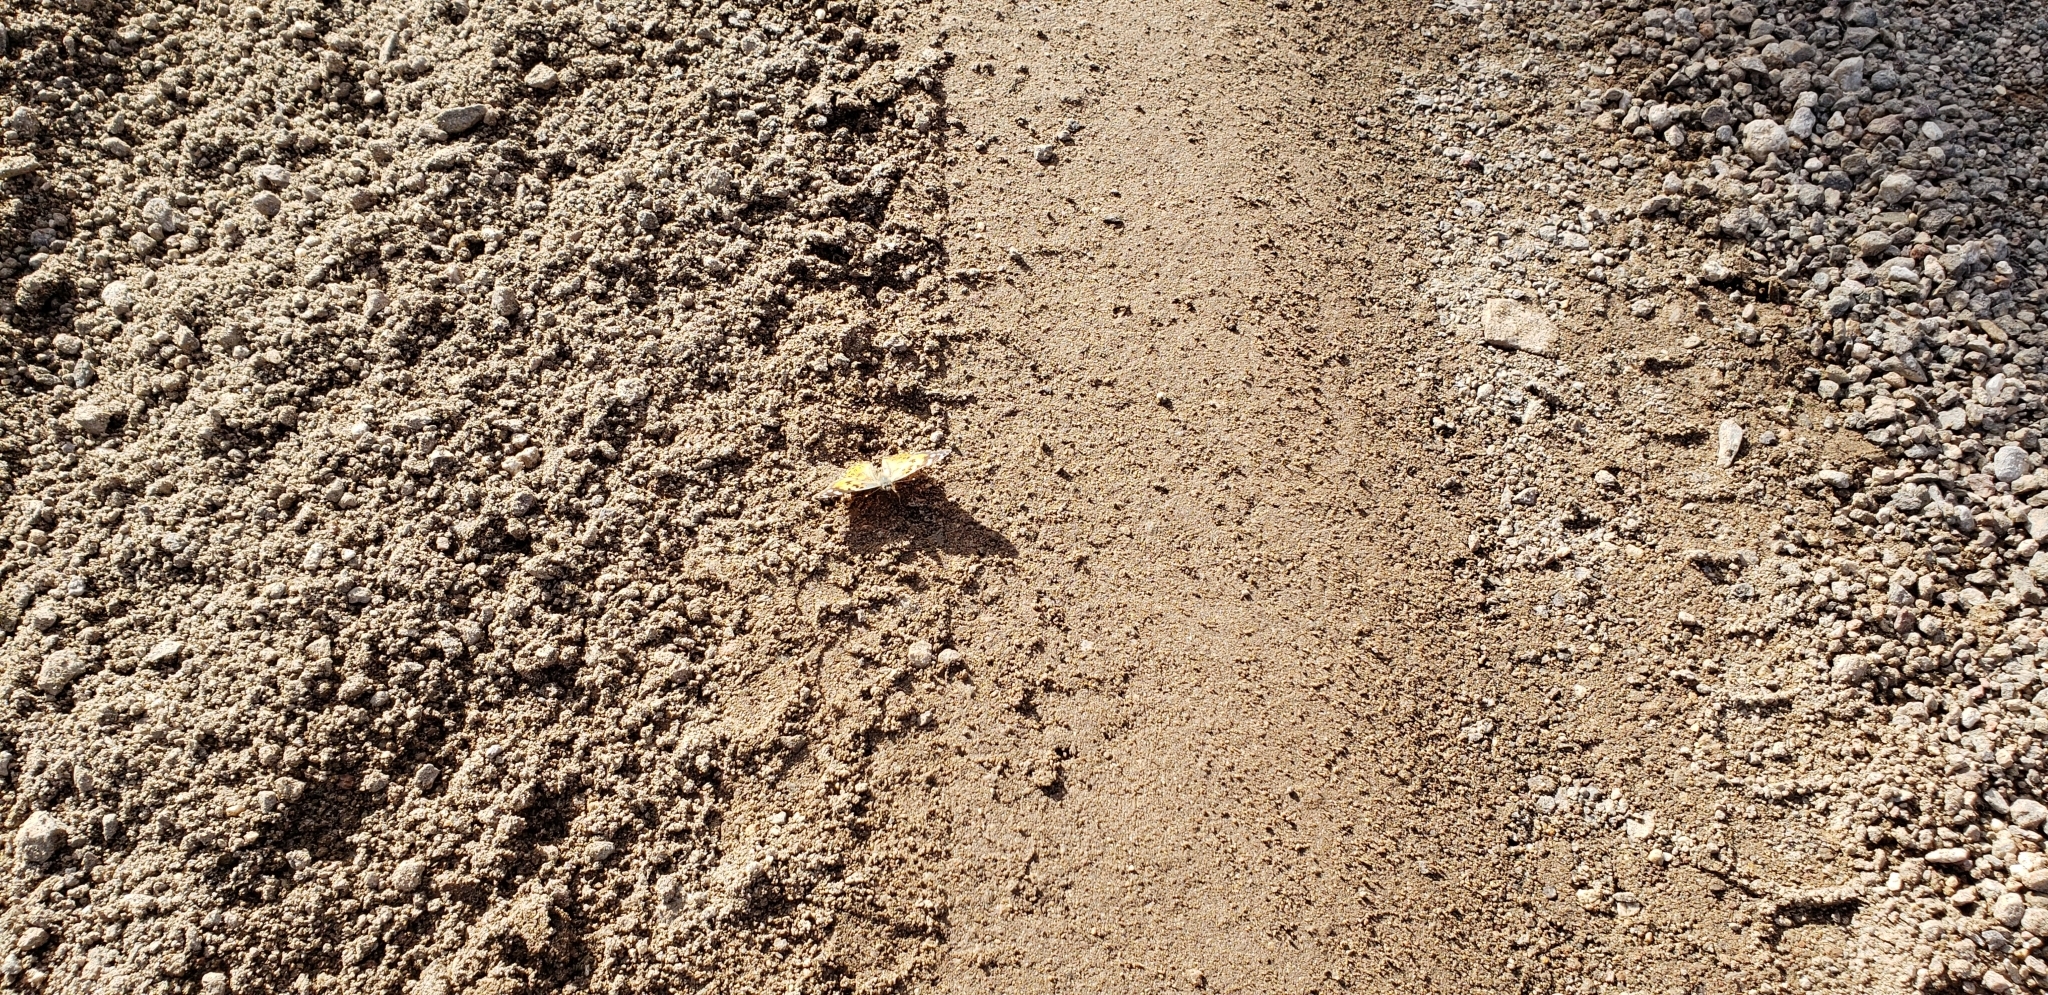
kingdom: Animalia
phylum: Arthropoda
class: Insecta
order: Lepidoptera
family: Nymphalidae
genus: Vanessa
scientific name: Vanessa cardui
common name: Painted lady
